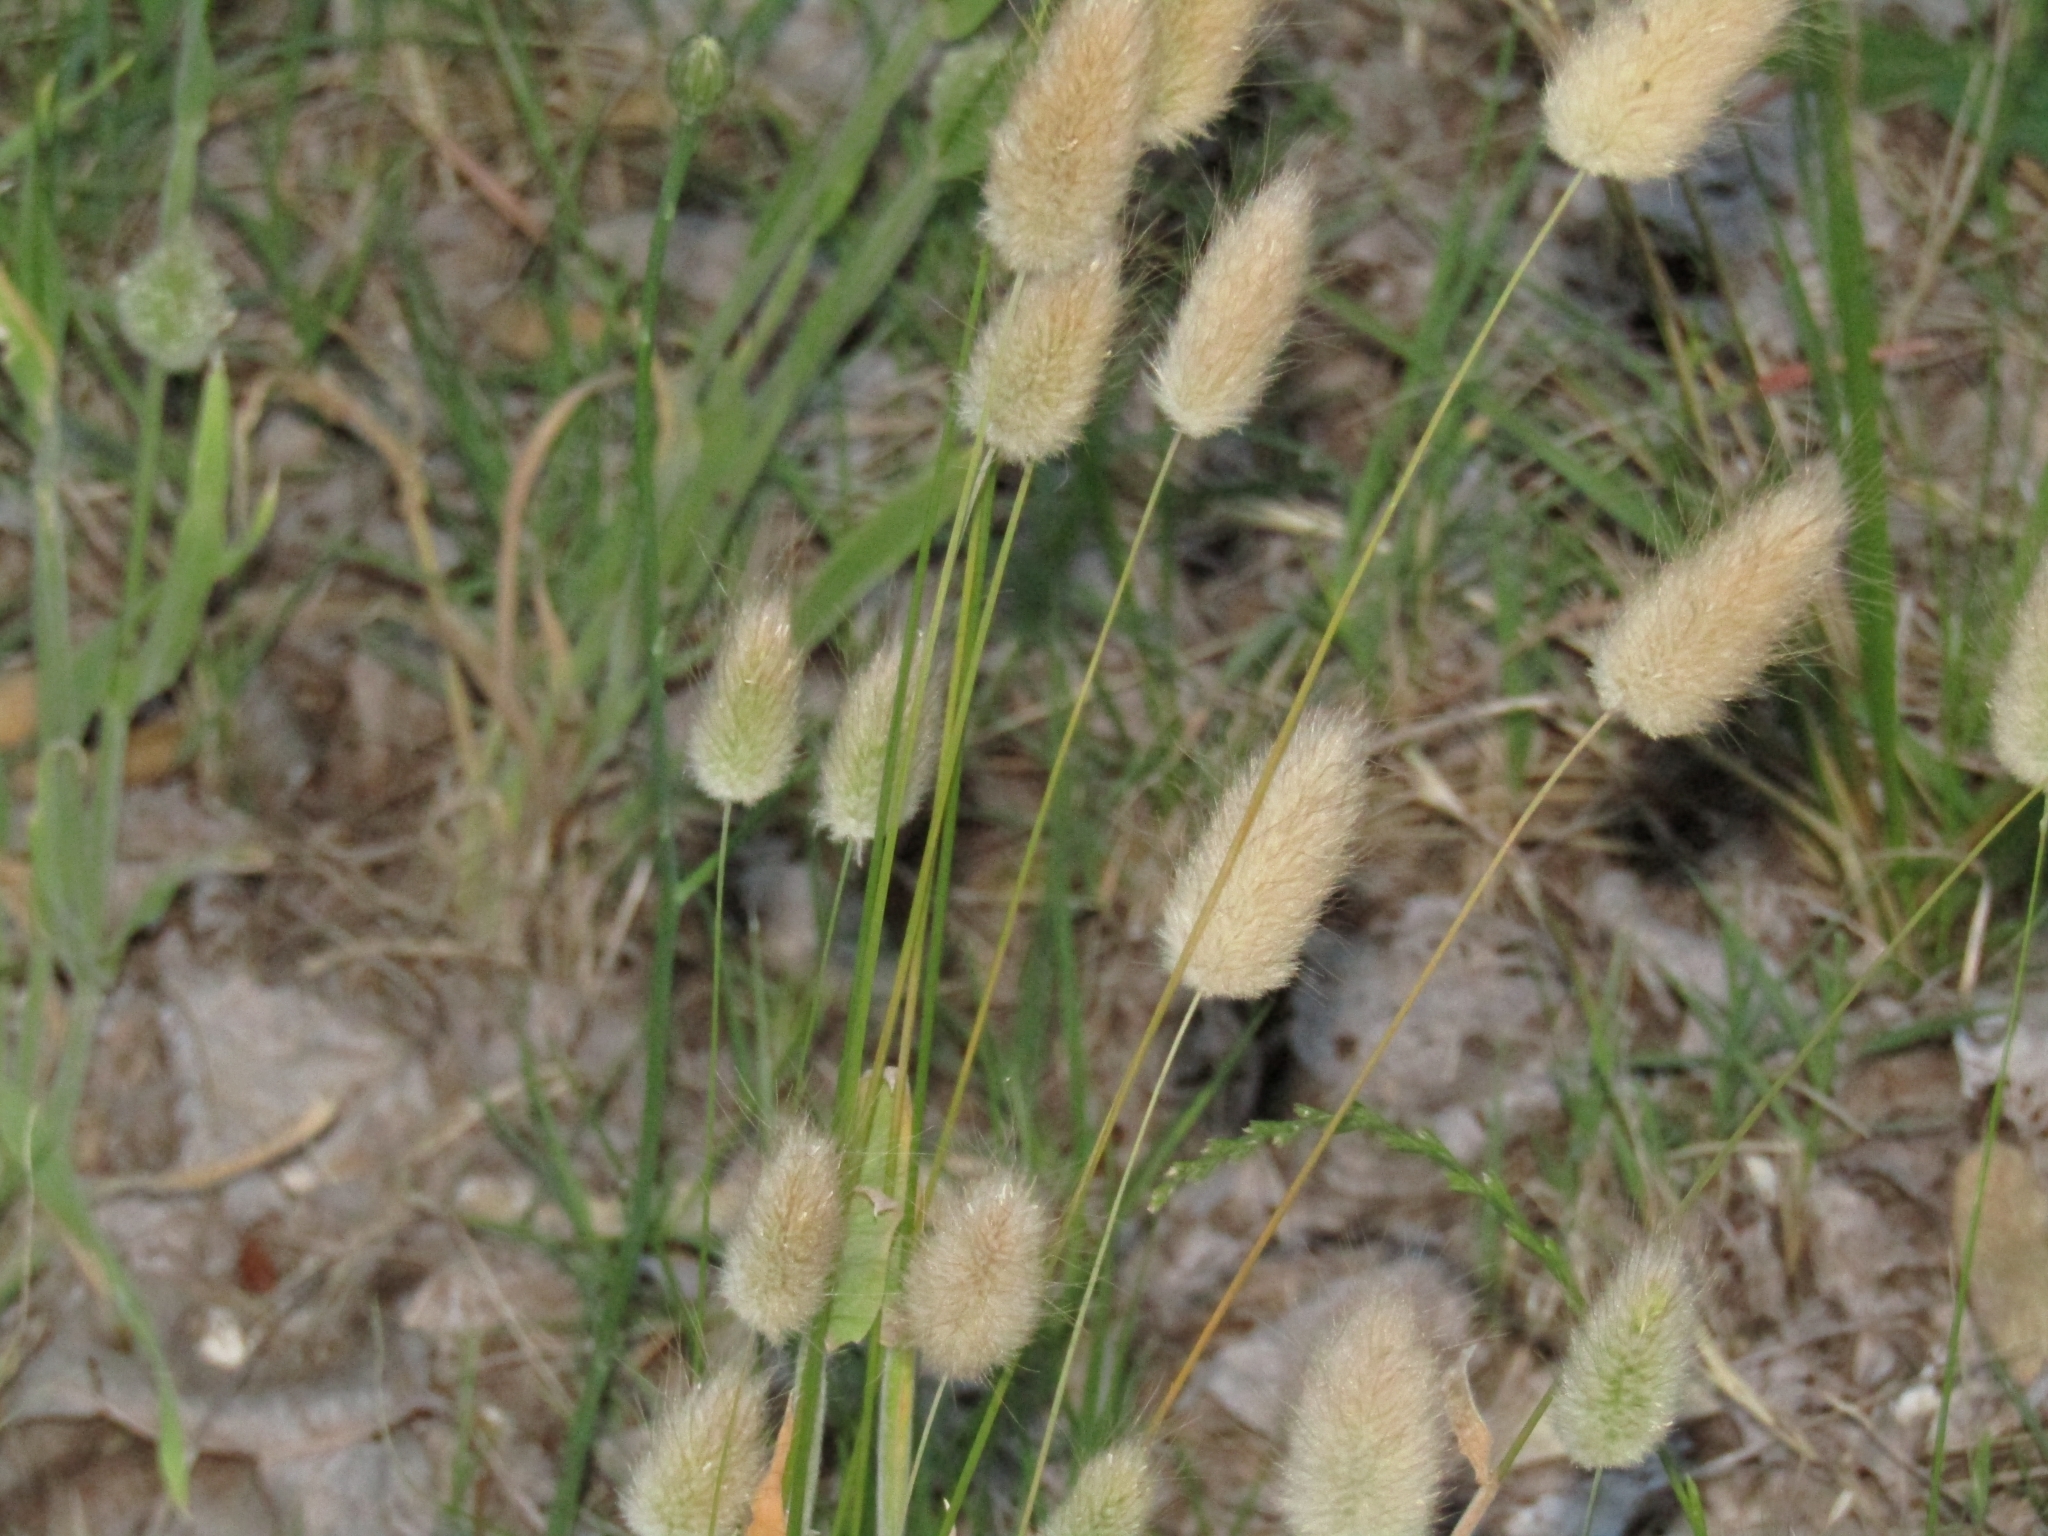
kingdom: Plantae
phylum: Tracheophyta
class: Liliopsida
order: Poales
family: Poaceae
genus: Lagurus
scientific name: Lagurus ovatus
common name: Hare's-tail
